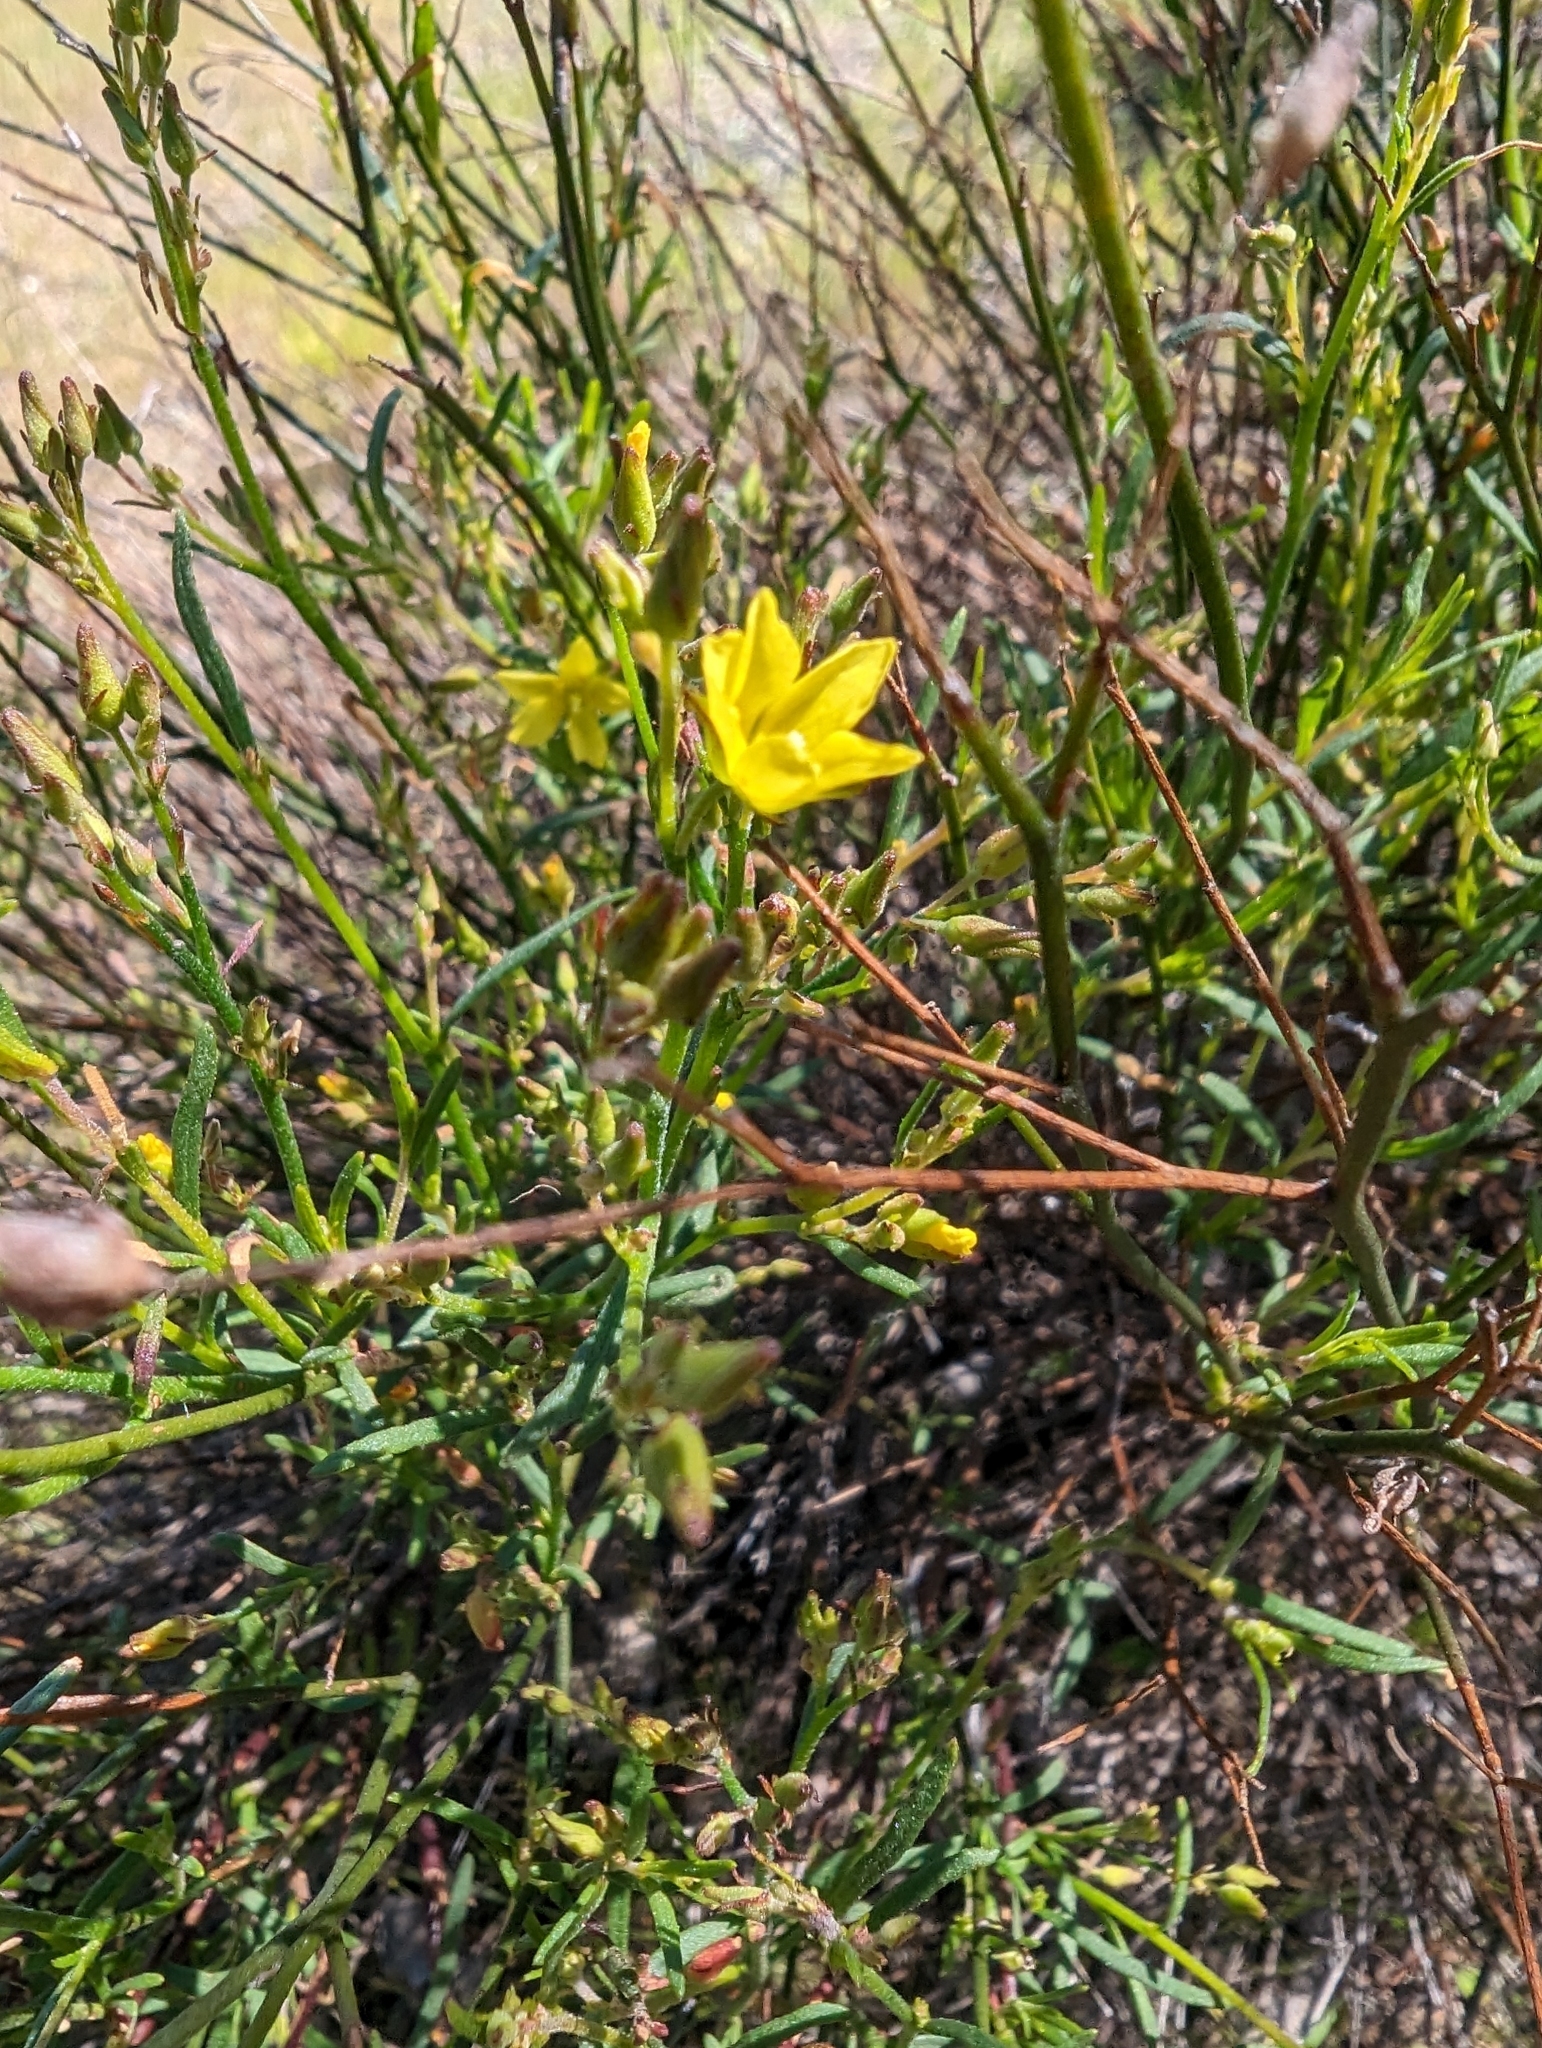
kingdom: Plantae
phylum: Tracheophyta
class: Magnoliopsida
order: Malvales
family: Cistaceae
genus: Crocanthemum
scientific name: Crocanthemum scoparium
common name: Broom-rose
